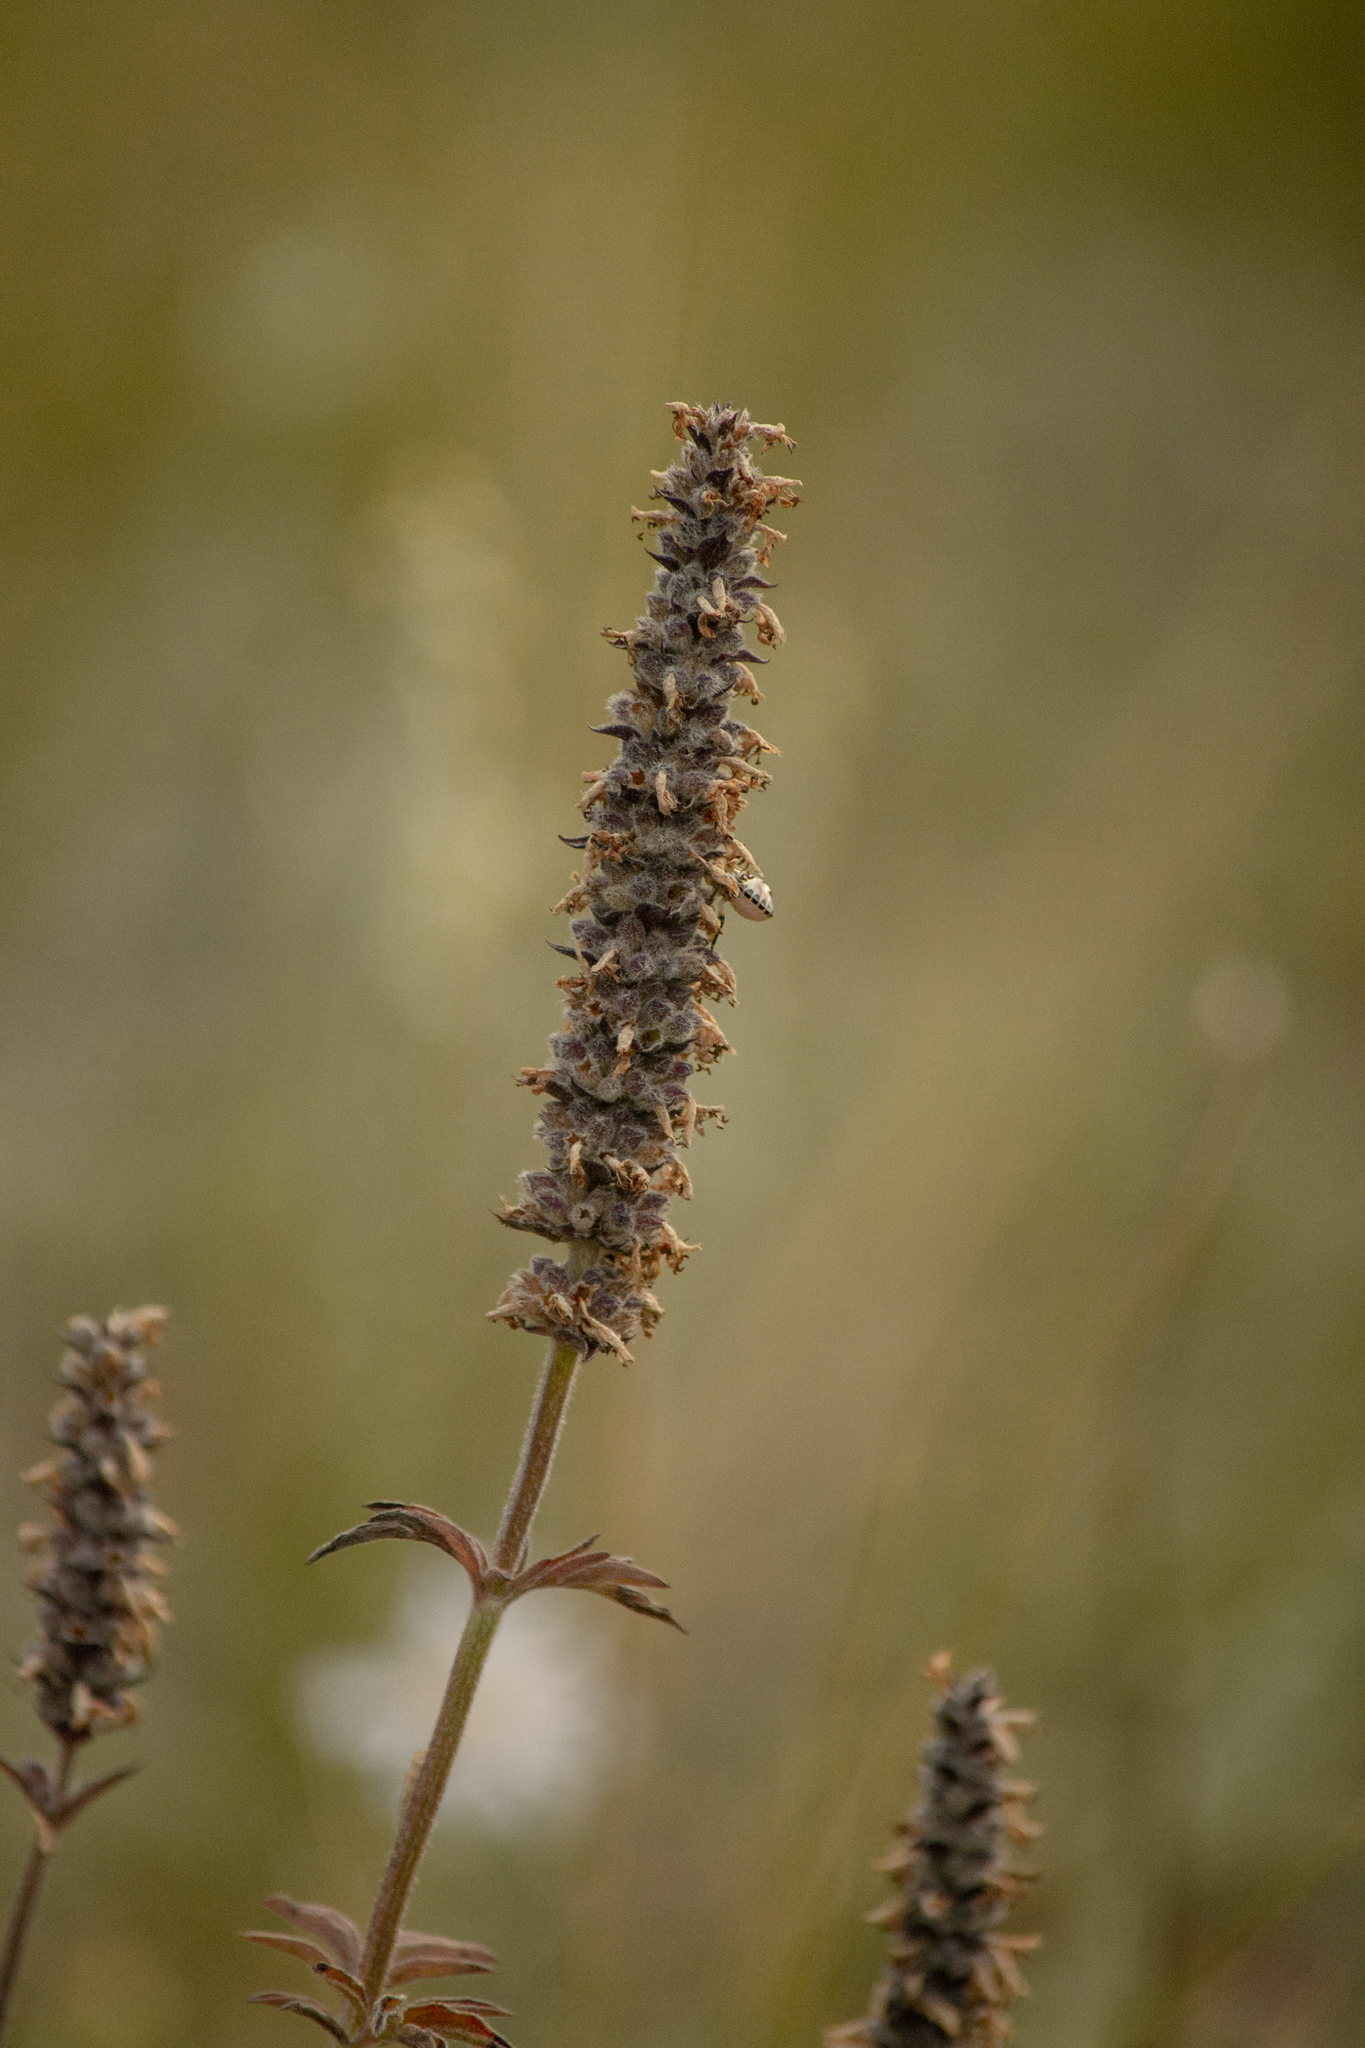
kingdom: Plantae
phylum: Tracheophyta
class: Magnoliopsida
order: Lamiales
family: Lamiaceae
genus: Nepeta
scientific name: Nepeta multifida
